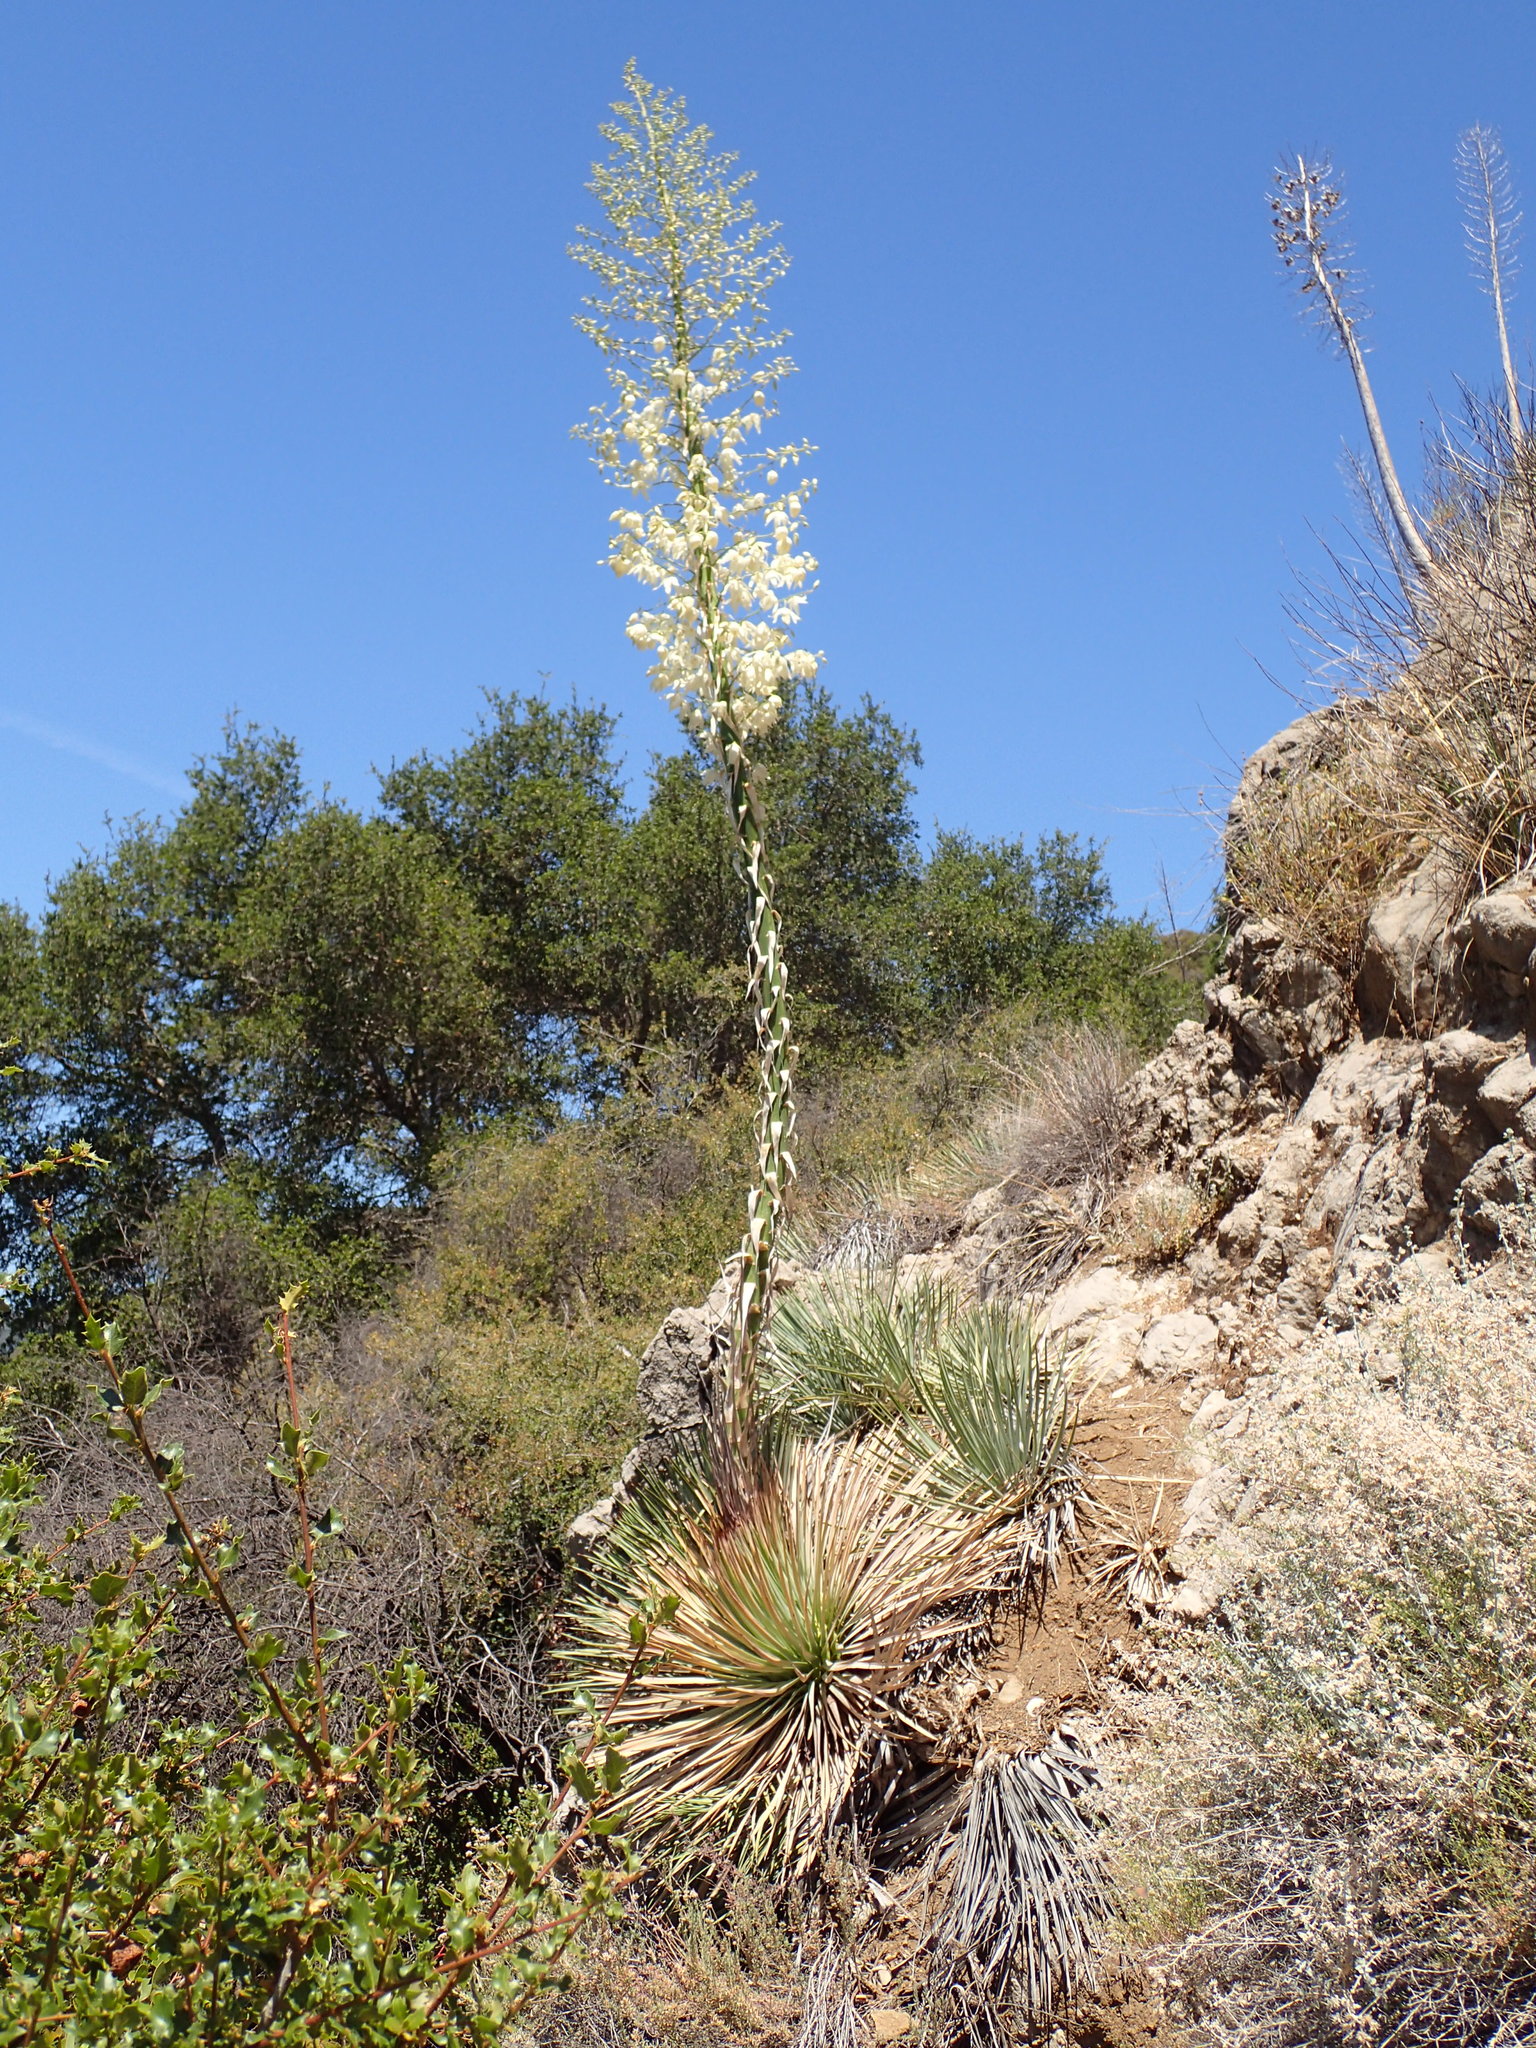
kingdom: Plantae
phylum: Tracheophyta
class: Liliopsida
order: Asparagales
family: Asparagaceae
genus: Hesperoyucca
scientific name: Hesperoyucca whipplei
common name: Our lord's-candle
